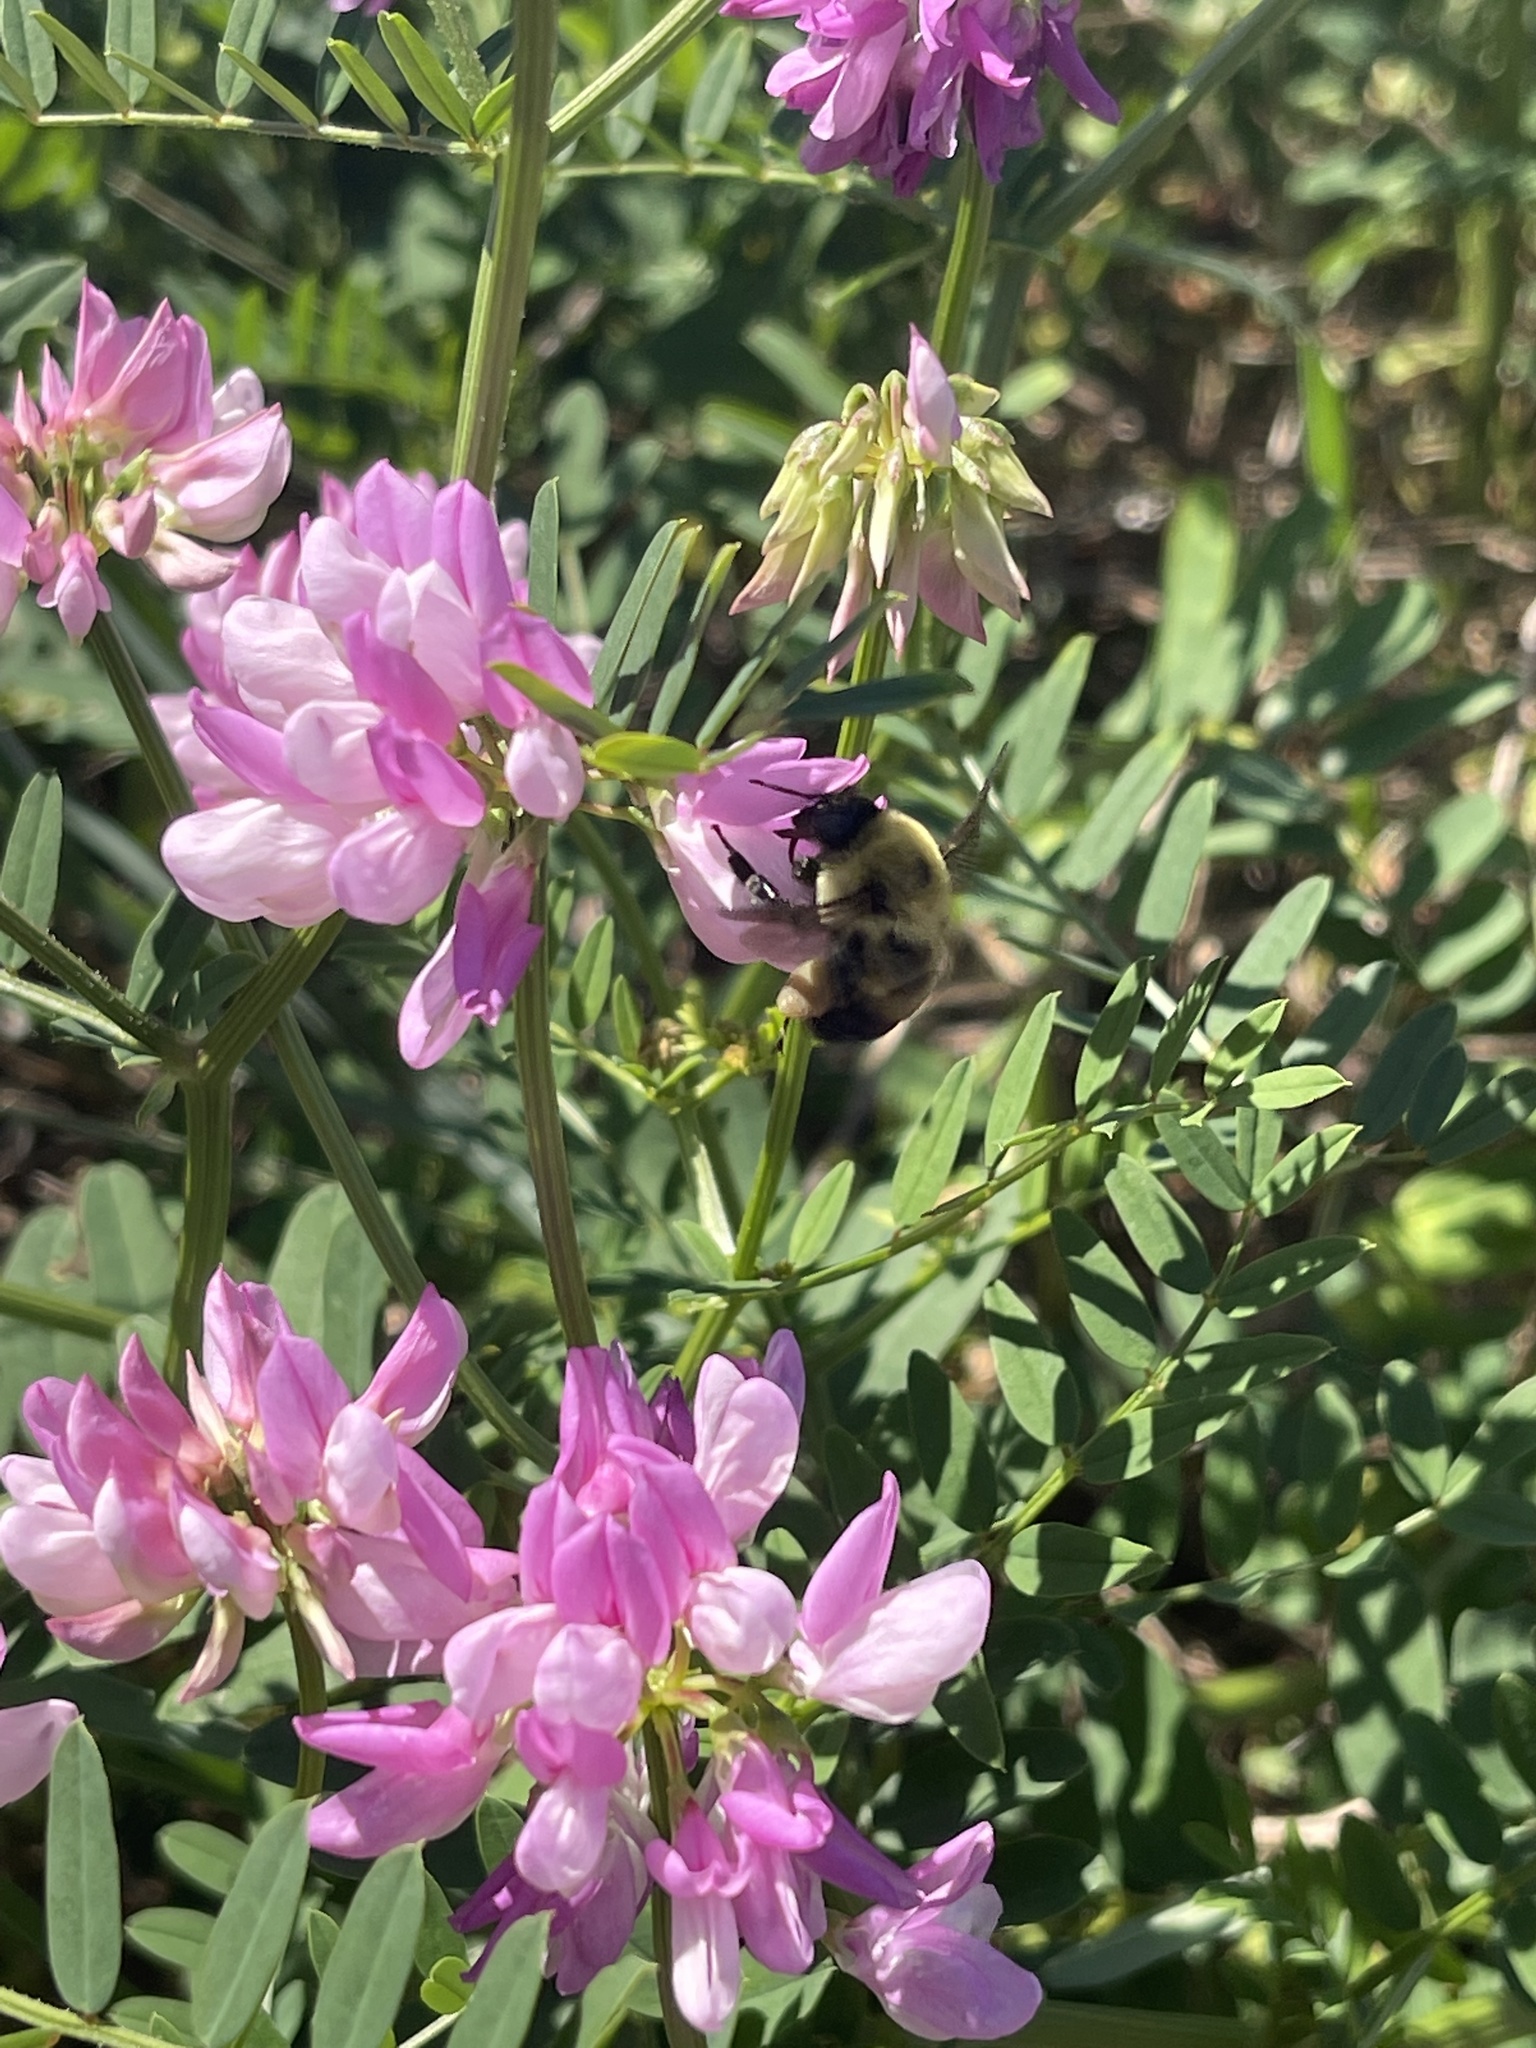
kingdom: Animalia
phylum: Arthropoda
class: Insecta
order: Hymenoptera
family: Apidae
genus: Bombus
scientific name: Bombus griseocollis
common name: Brown-belted bumble bee
